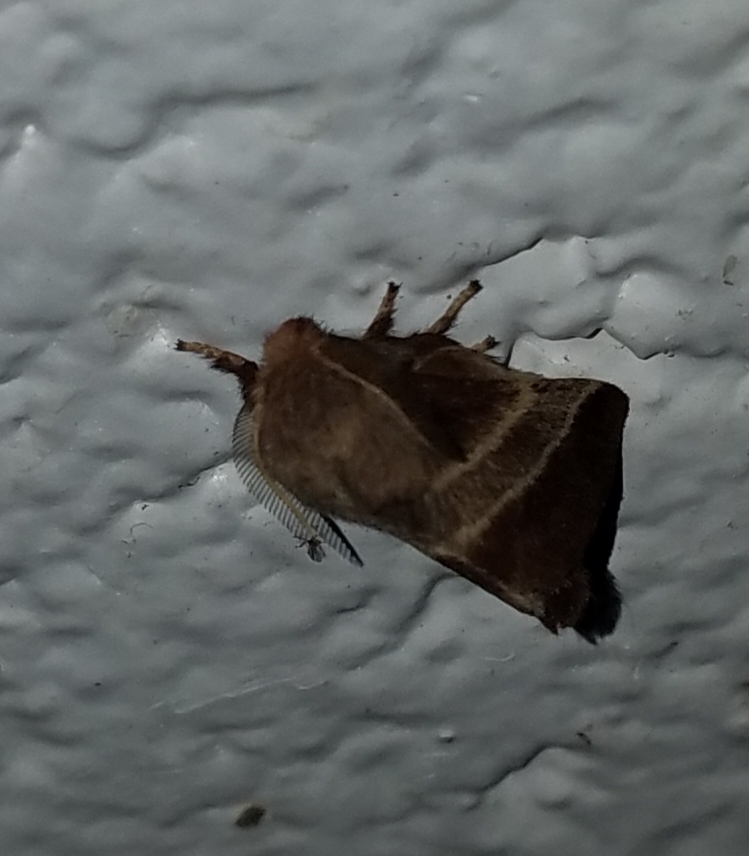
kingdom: Animalia
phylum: Arthropoda
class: Insecta
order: Lepidoptera
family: Lasiocampidae
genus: Malacosoma
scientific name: Malacosoma americana
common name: Eastern tent caterpillar moth
